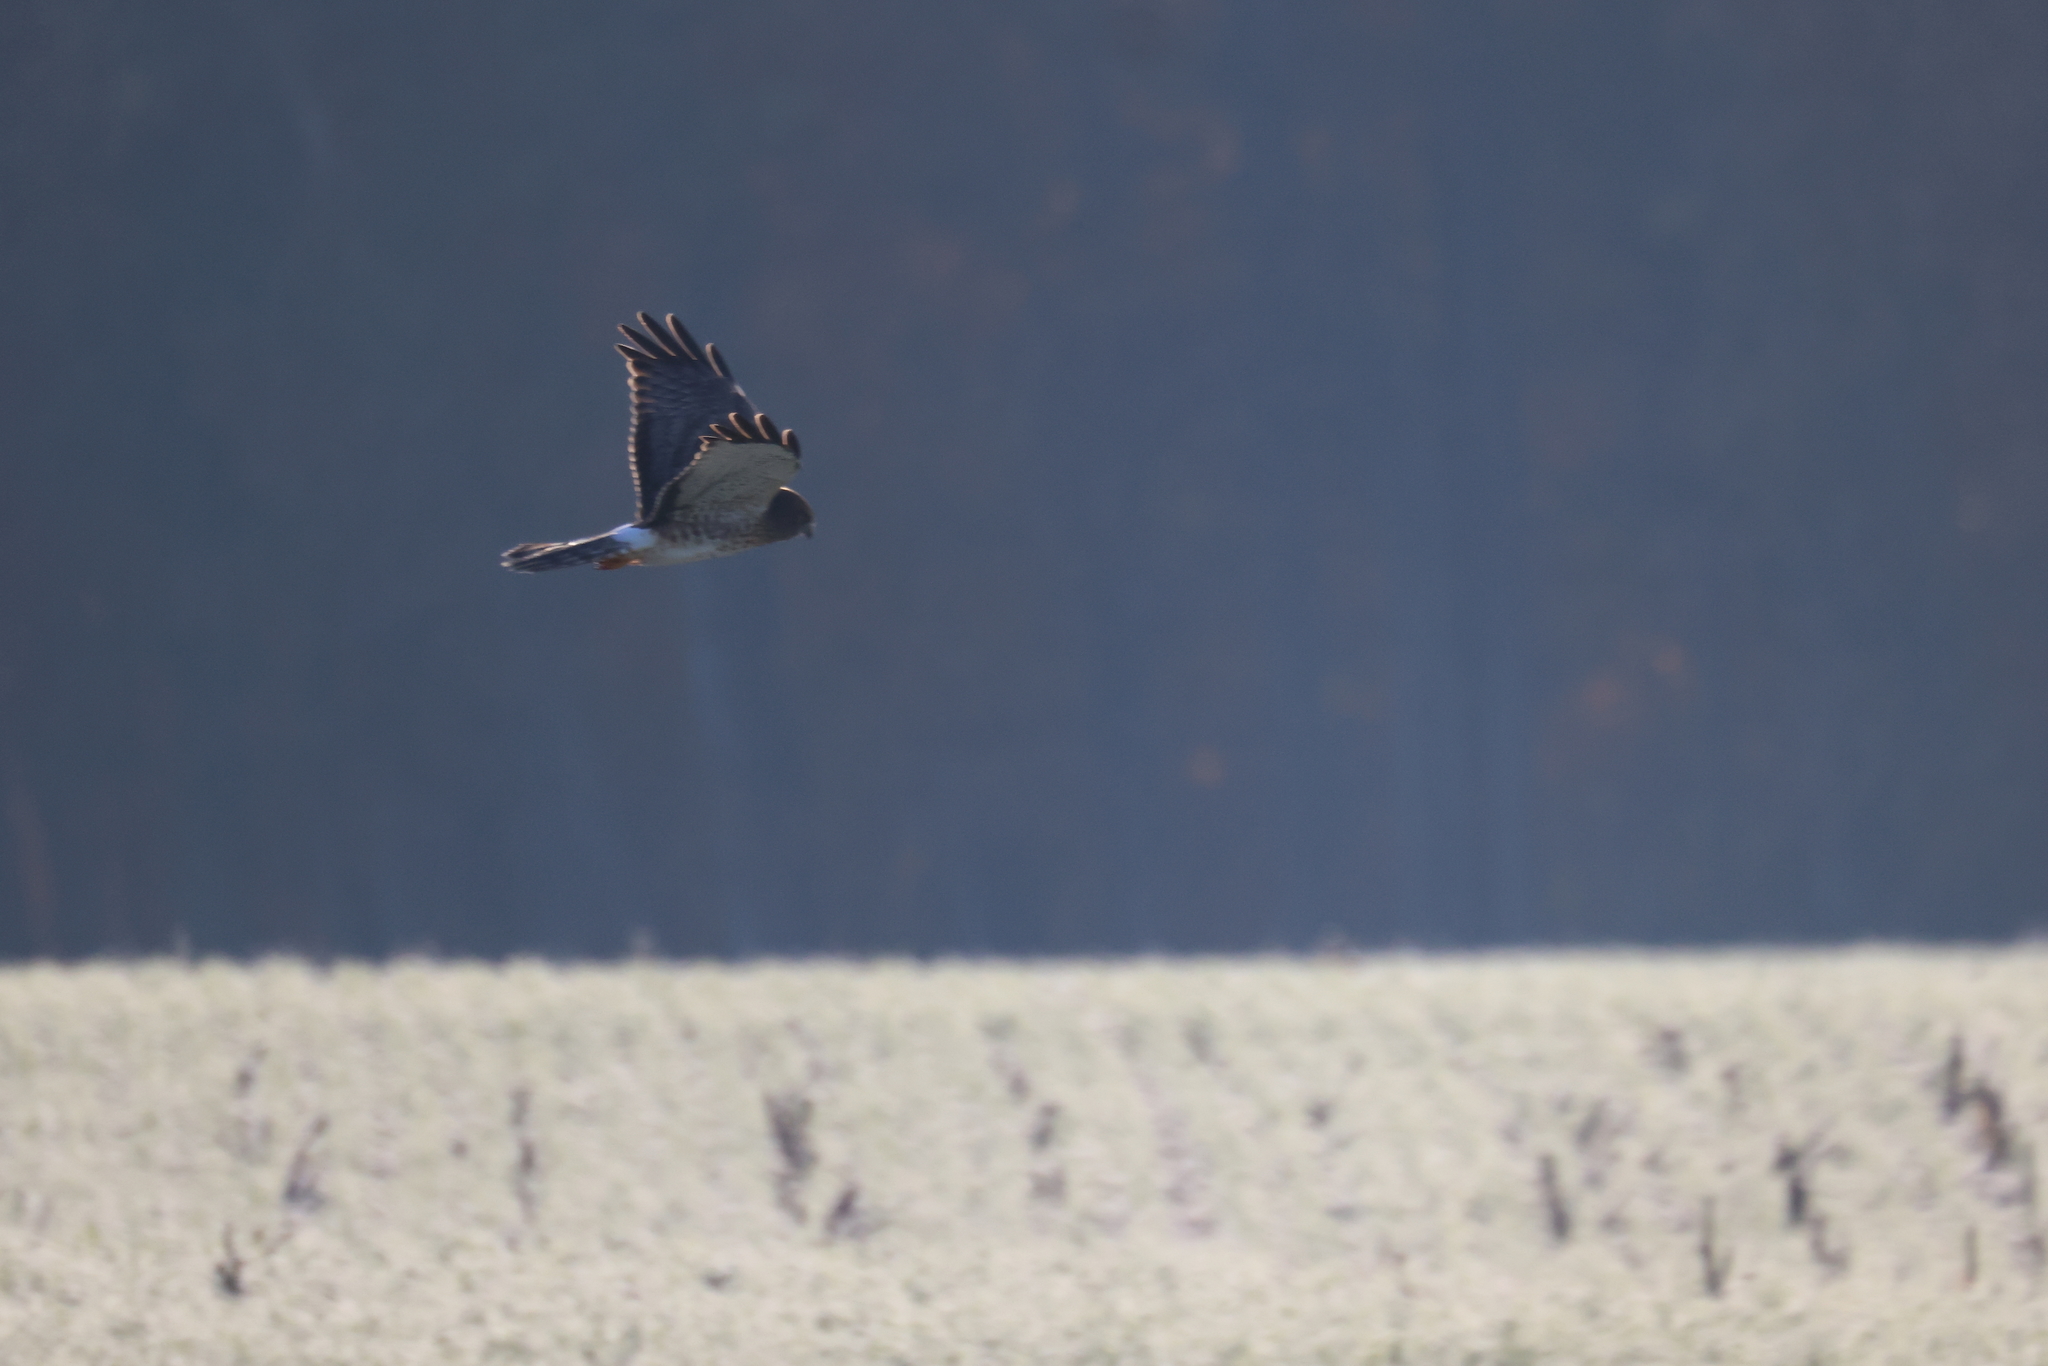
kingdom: Animalia
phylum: Chordata
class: Aves
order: Accipitriformes
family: Accipitridae
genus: Circus
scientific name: Circus cyaneus
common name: Hen harrier
